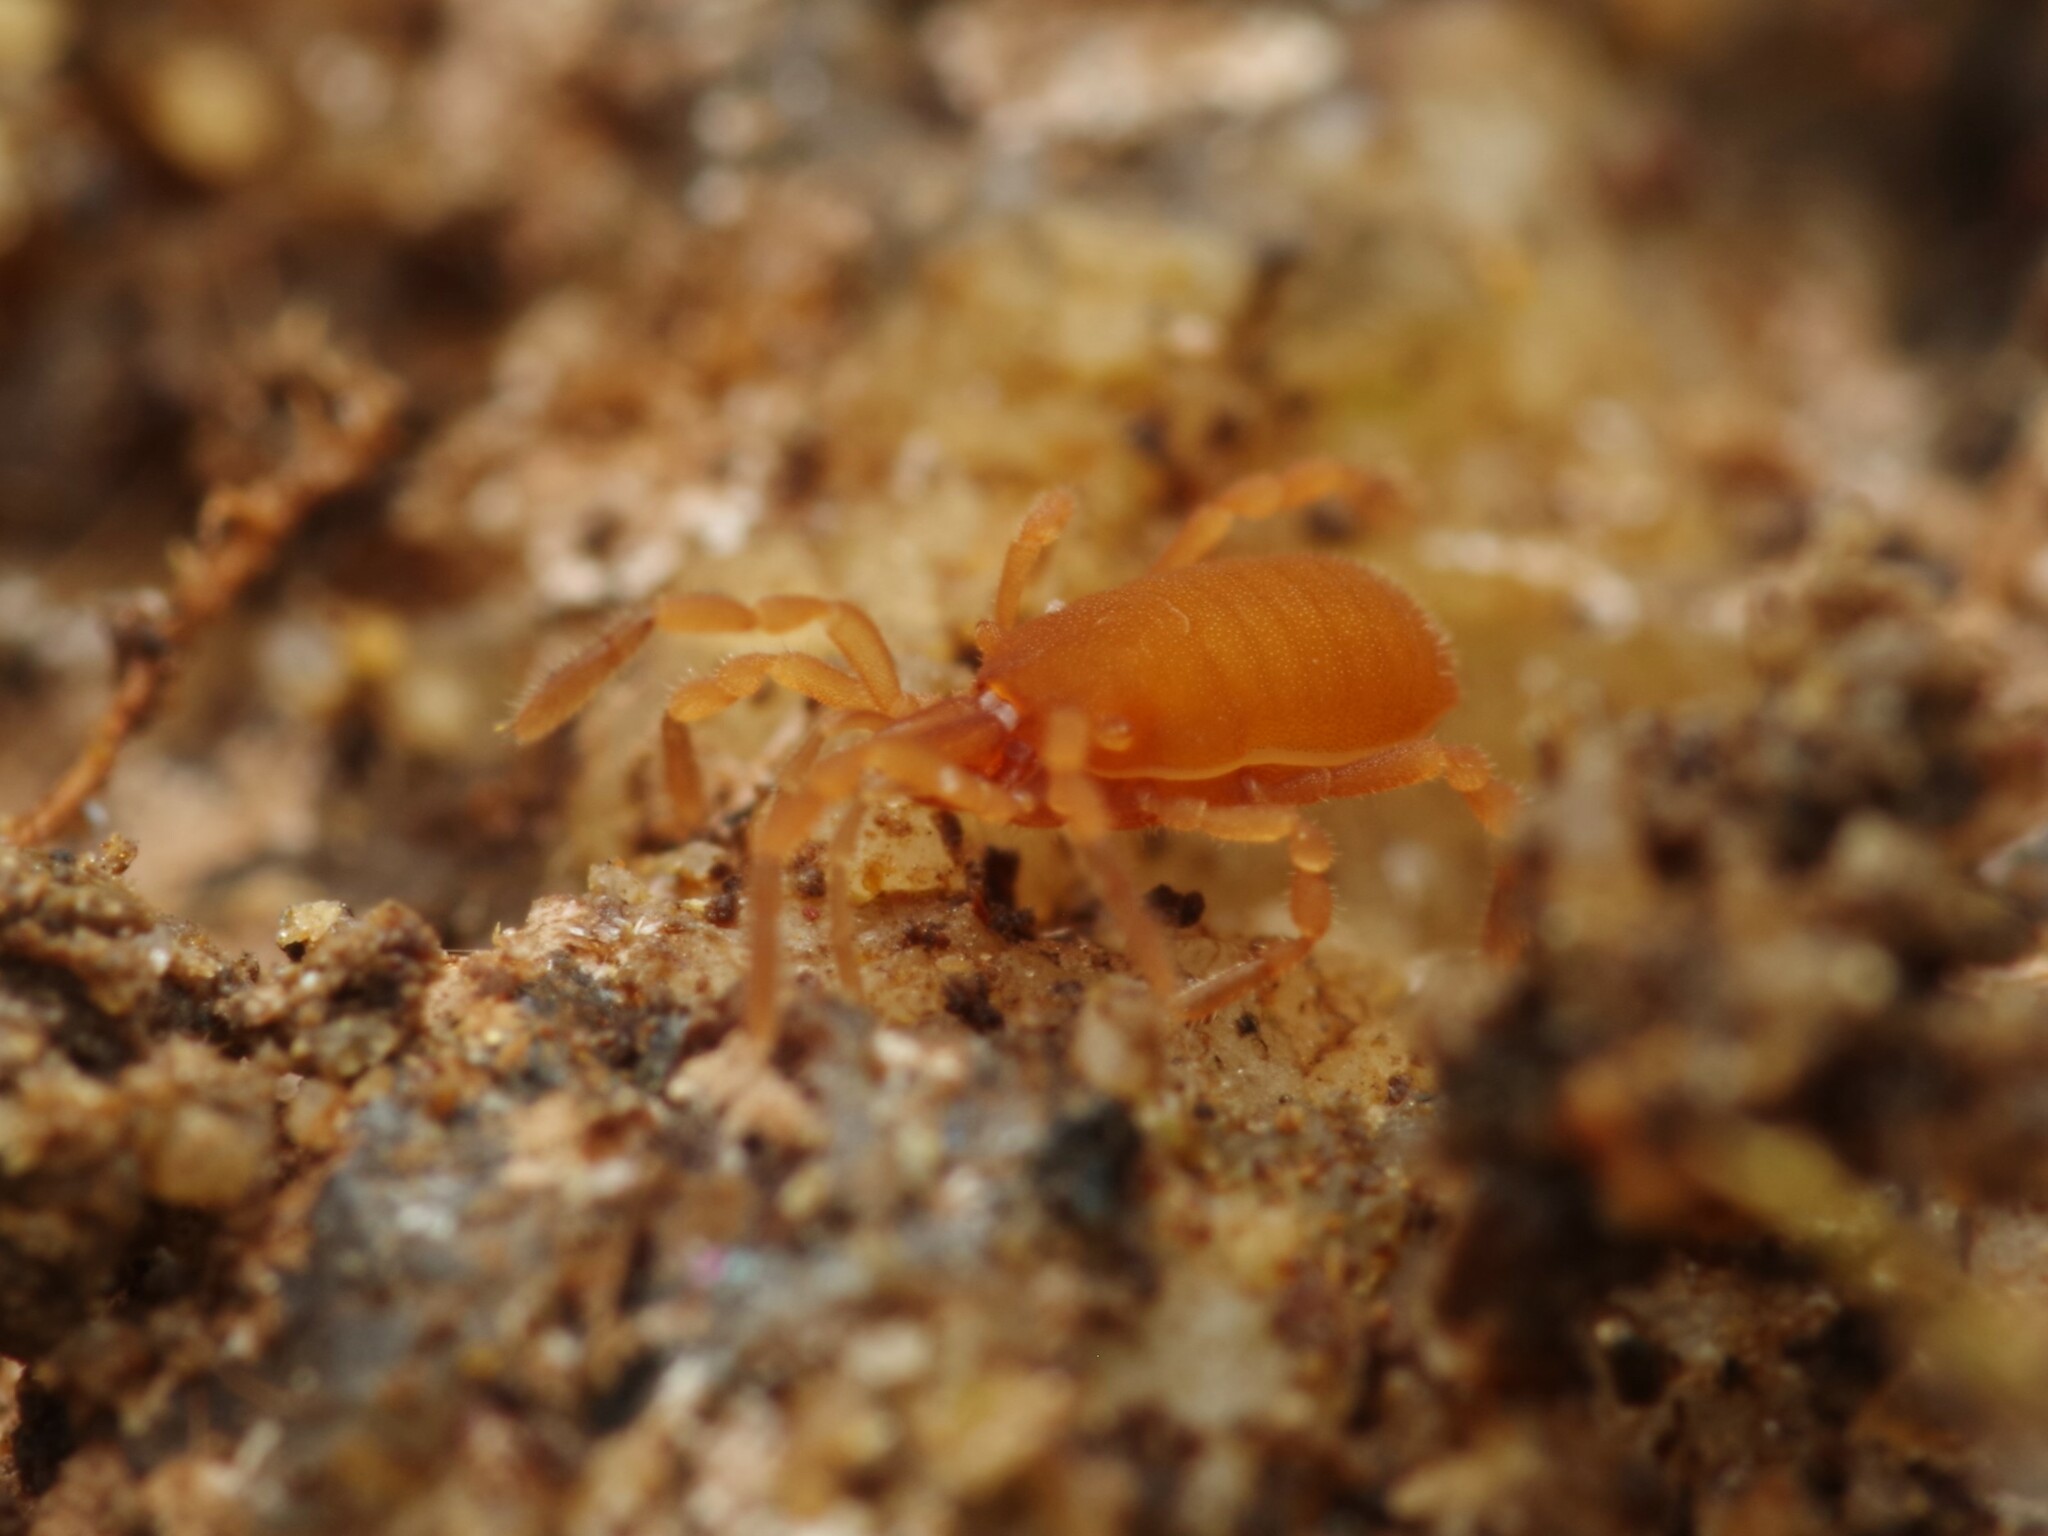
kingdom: Animalia
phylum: Arthropoda
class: Arachnida
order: Opiliones
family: Sironidae
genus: Siro
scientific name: Siro rubens
